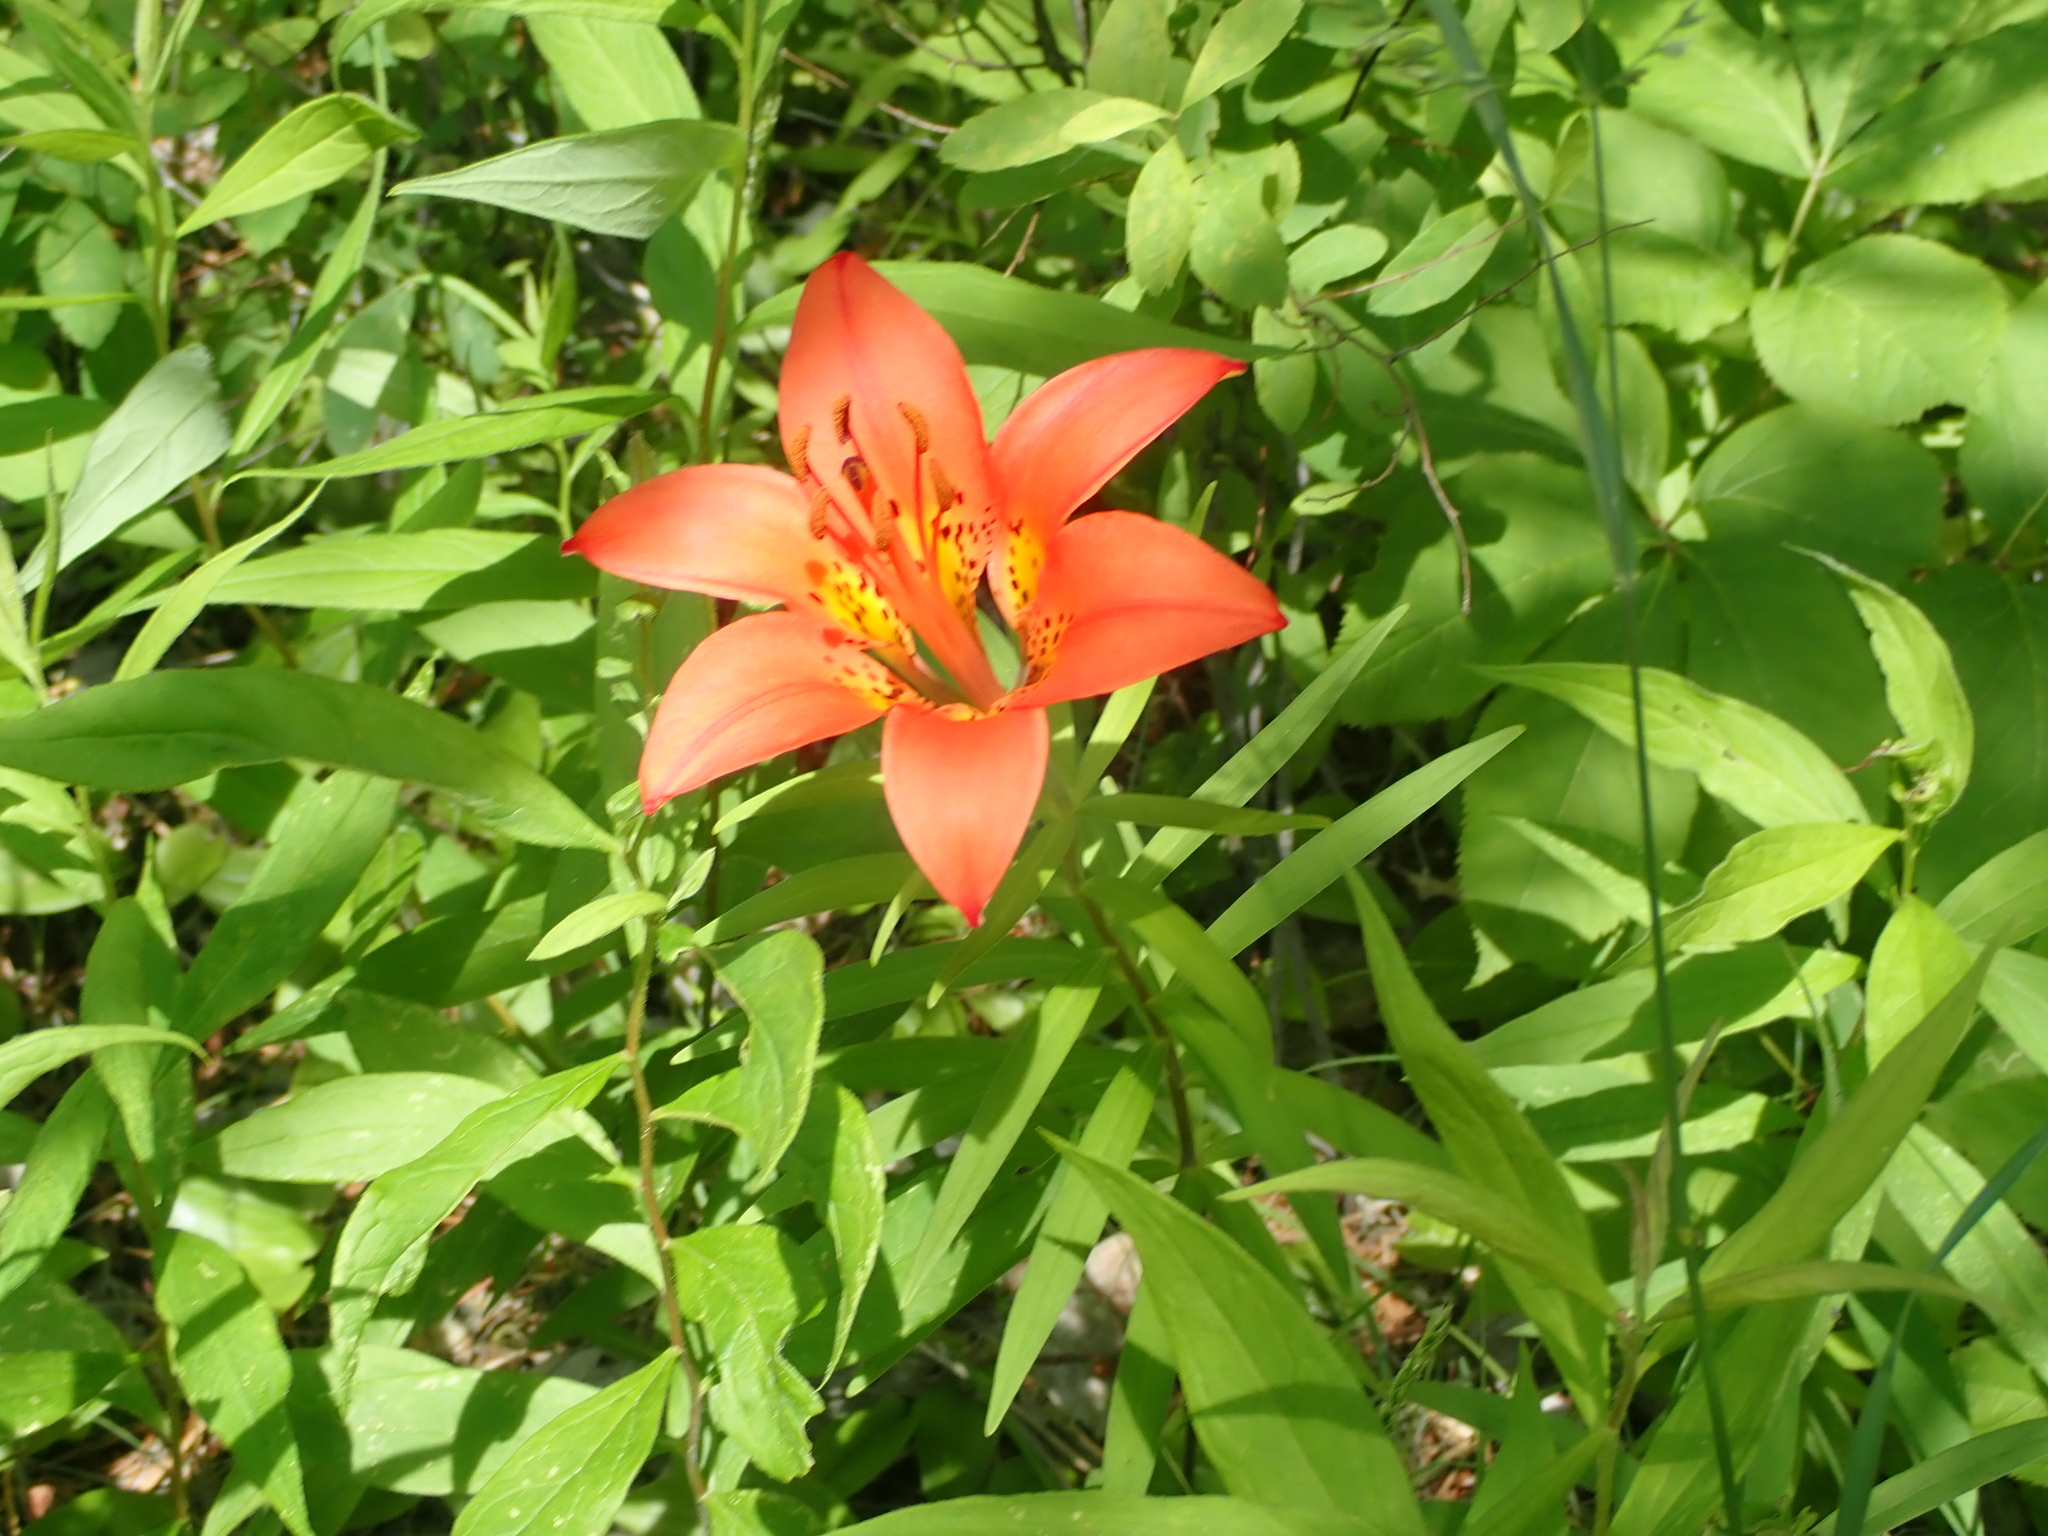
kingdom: Plantae
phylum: Tracheophyta
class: Liliopsida
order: Liliales
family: Liliaceae
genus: Lilium
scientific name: Lilium philadelphicum
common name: Red lily
